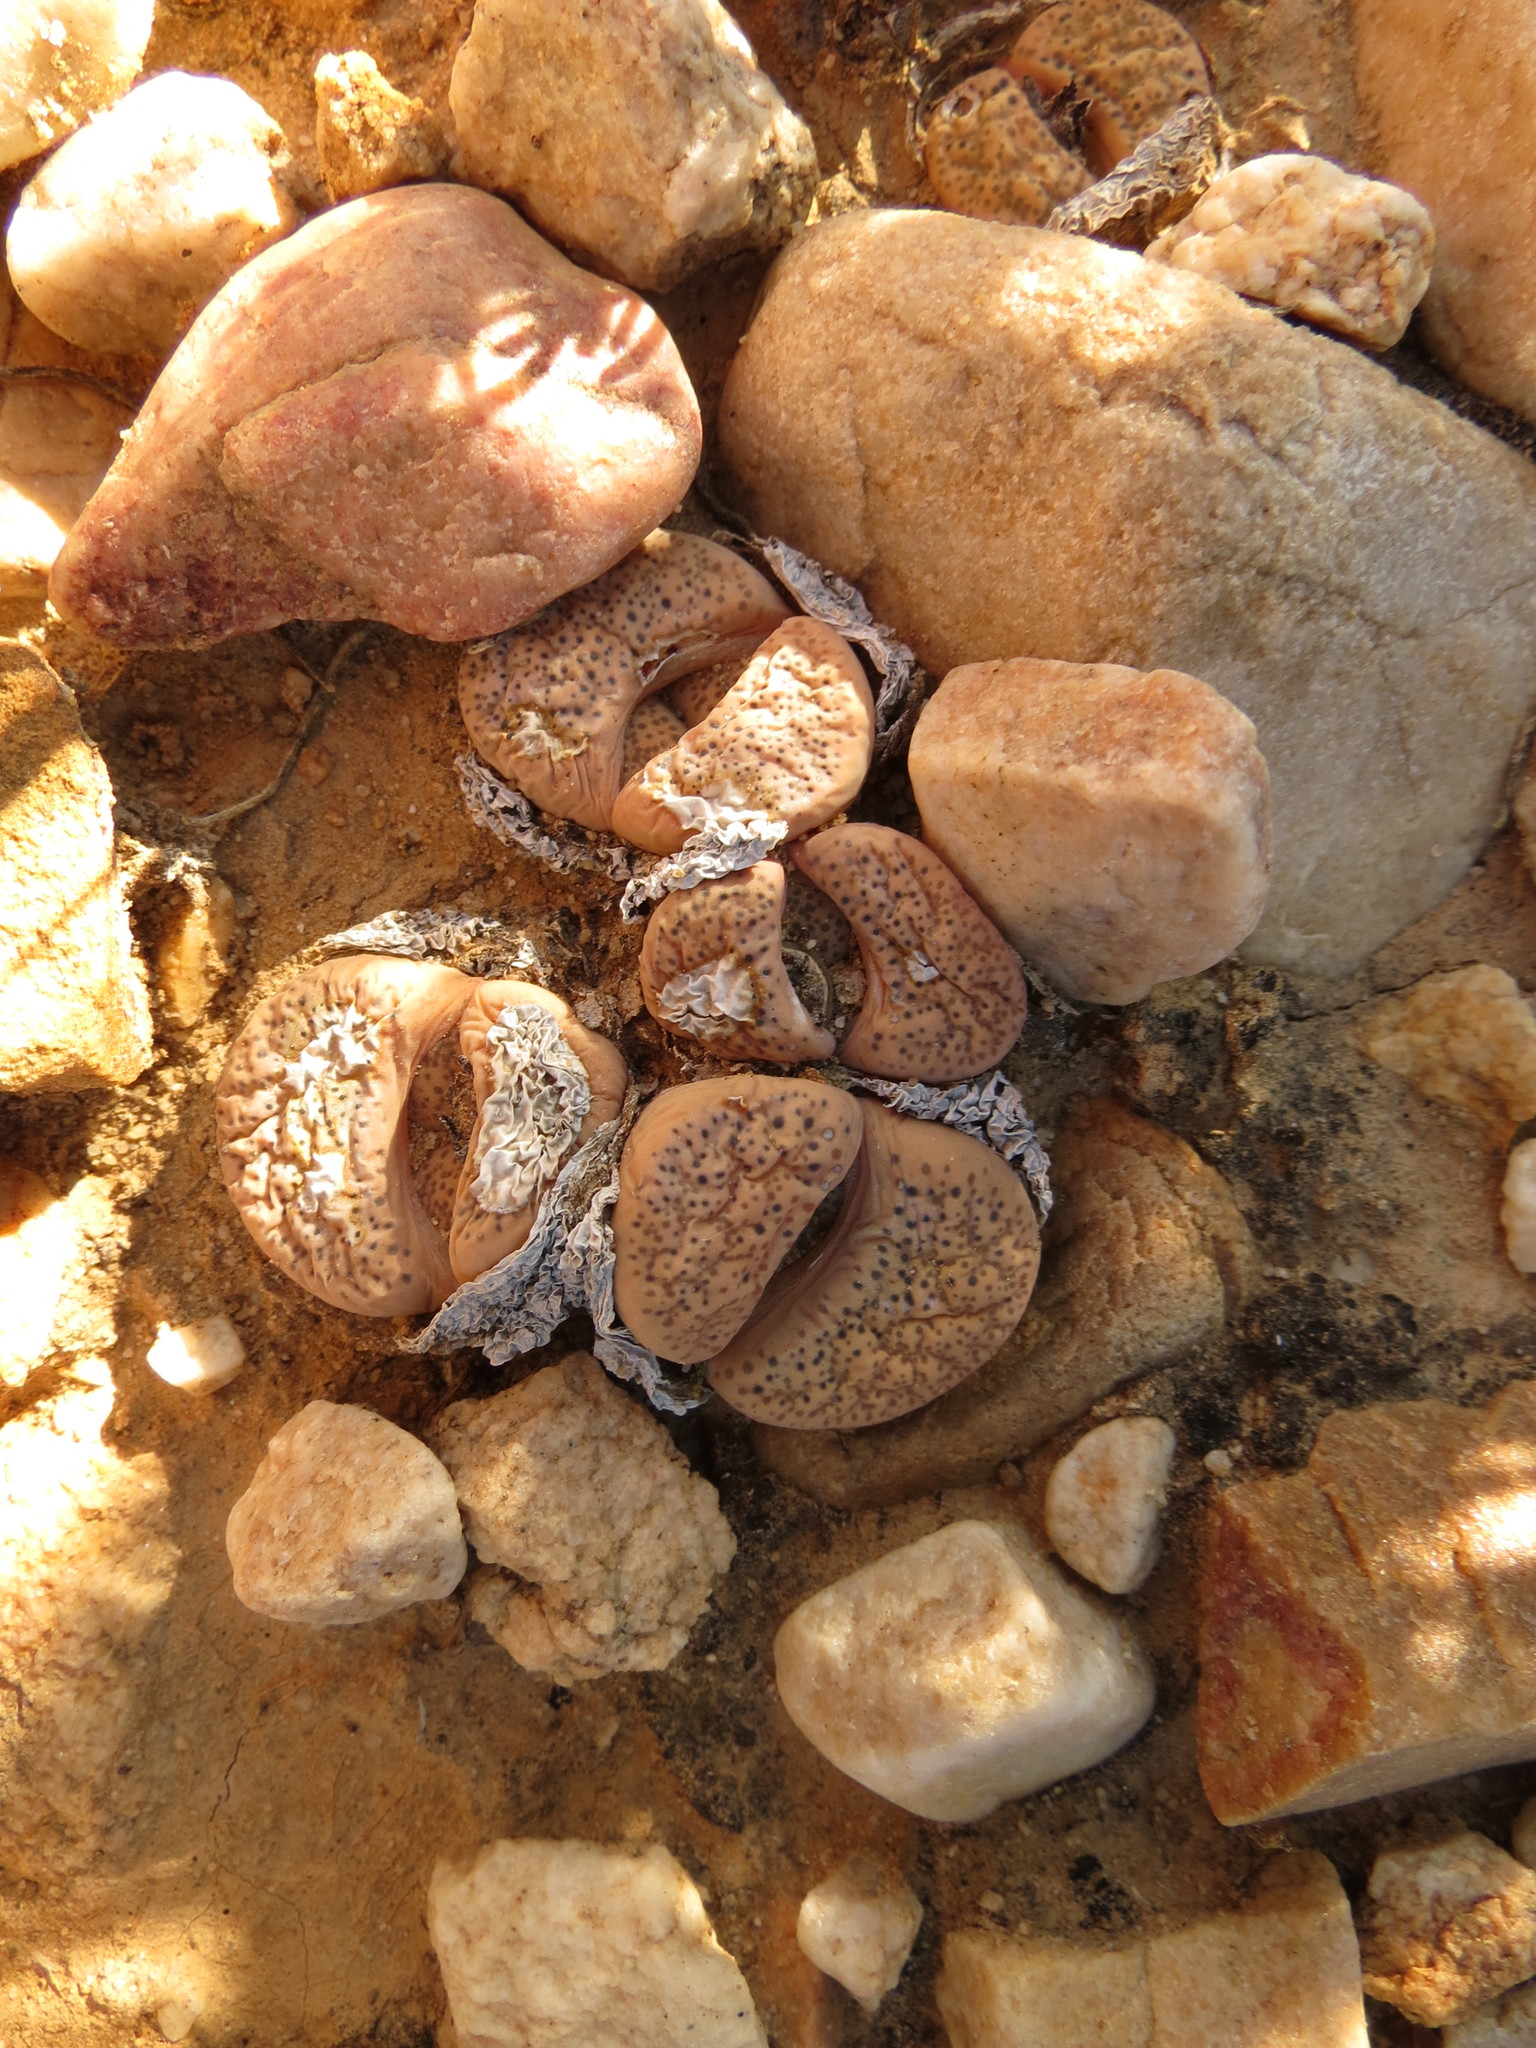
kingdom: Plantae
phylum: Tracheophyta
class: Magnoliopsida
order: Caryophyllales
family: Aizoaceae
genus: Lithops
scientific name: Lithops localis
